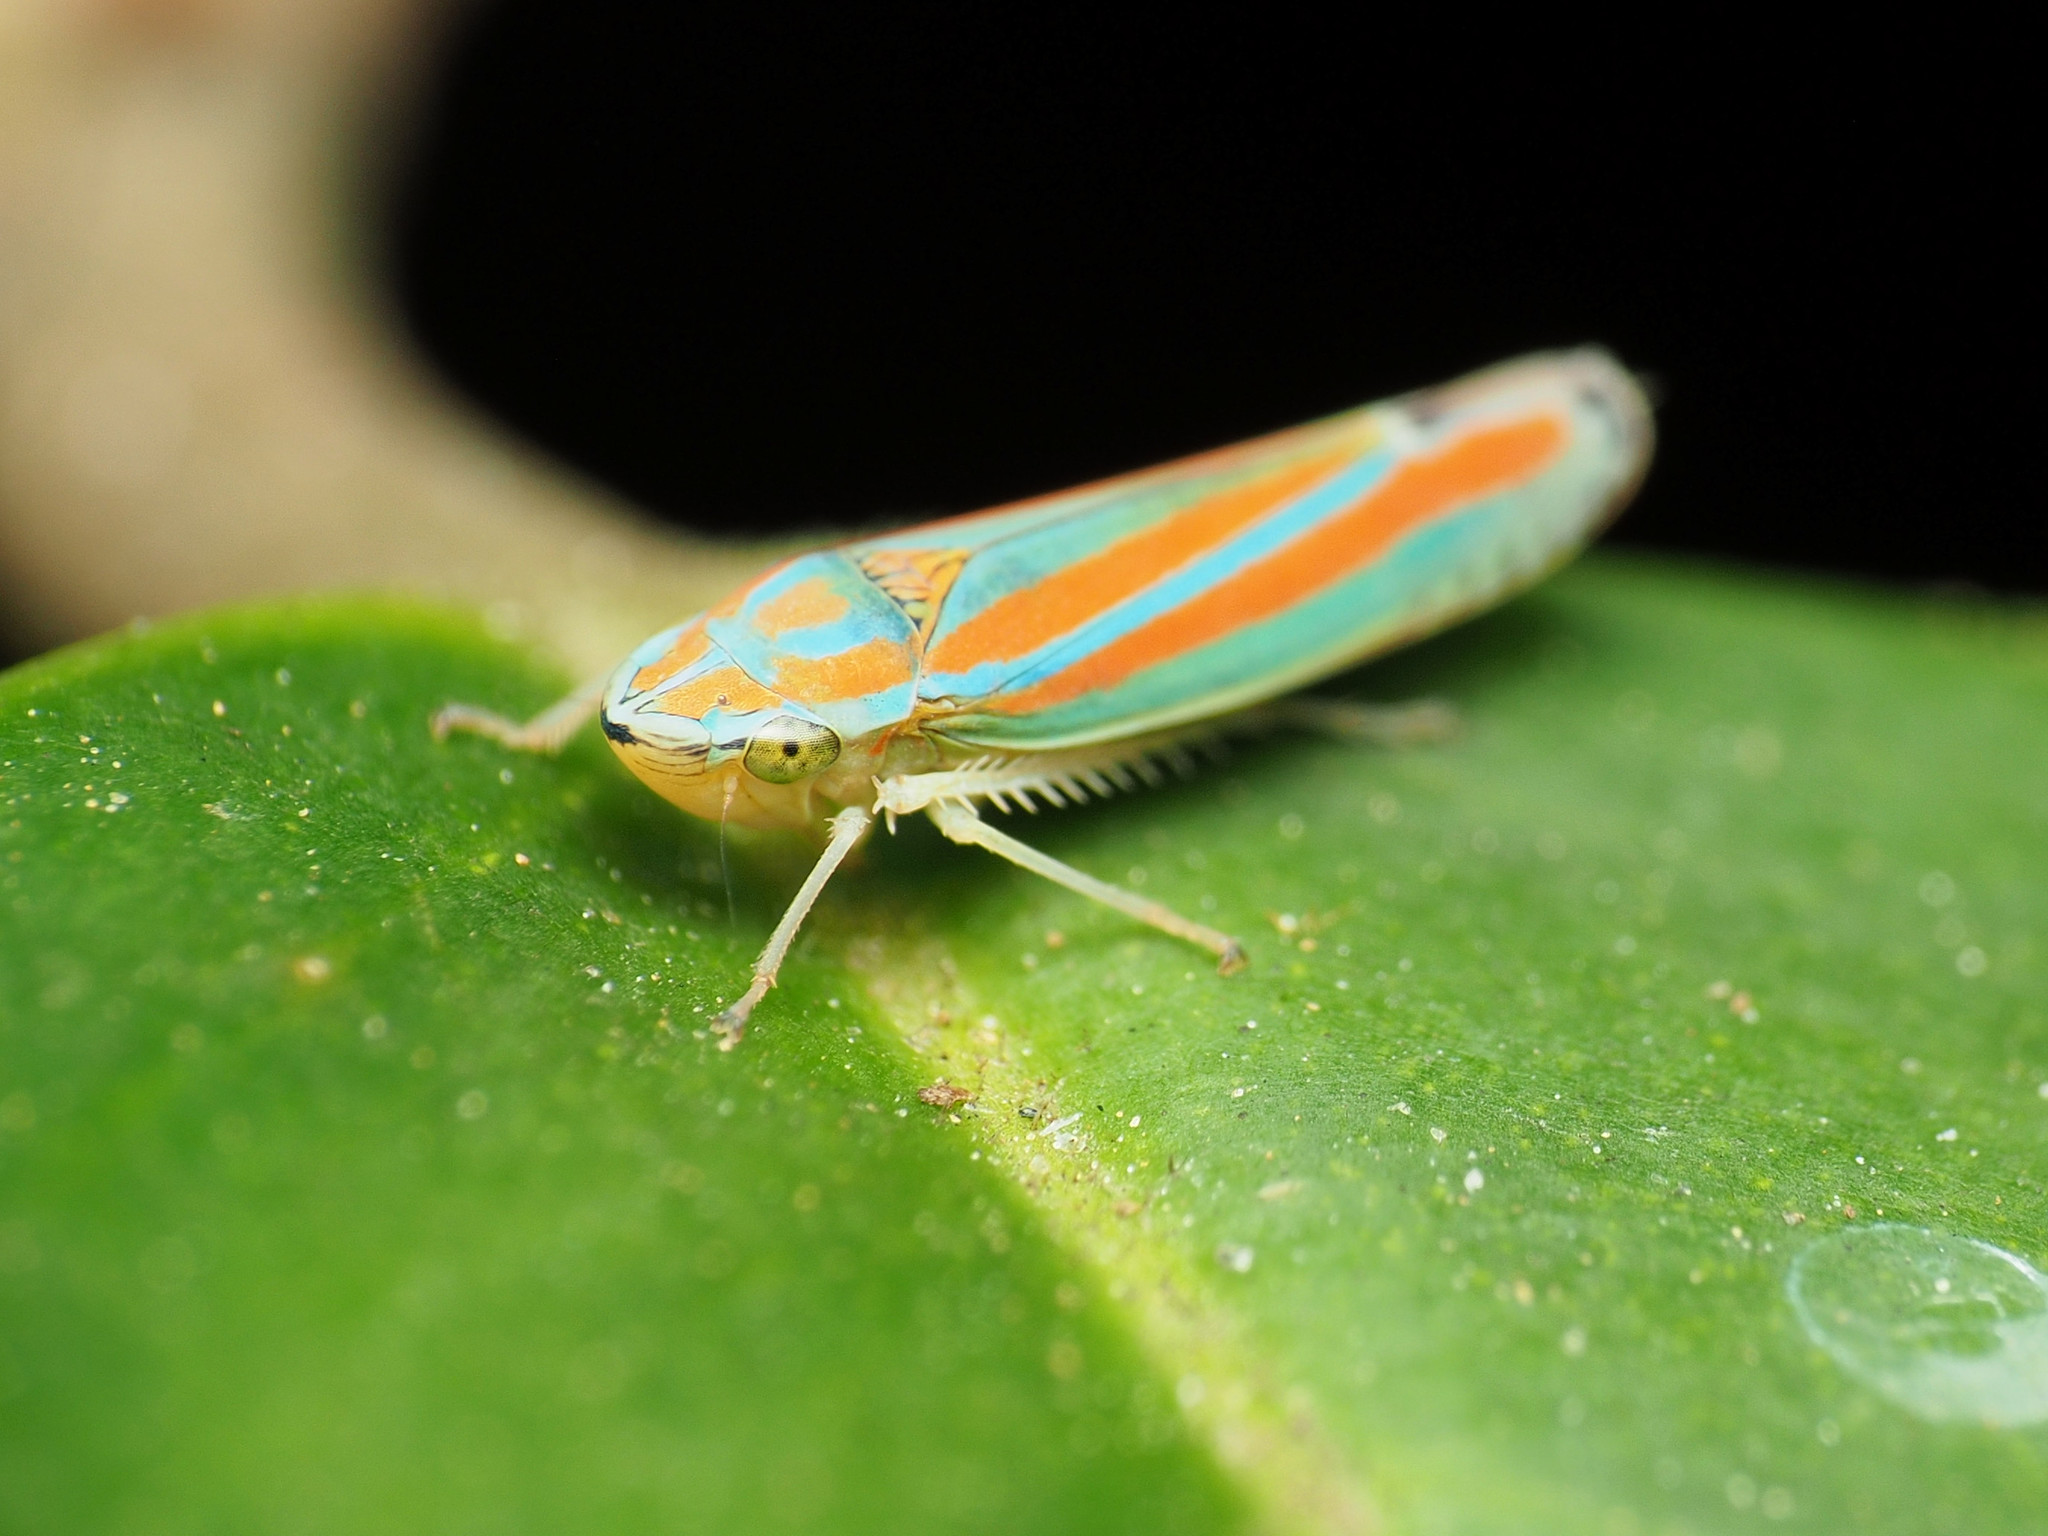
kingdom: Animalia
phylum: Arthropoda
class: Insecta
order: Hemiptera
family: Cicadellidae
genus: Graphocephala
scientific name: Graphocephala versuta
